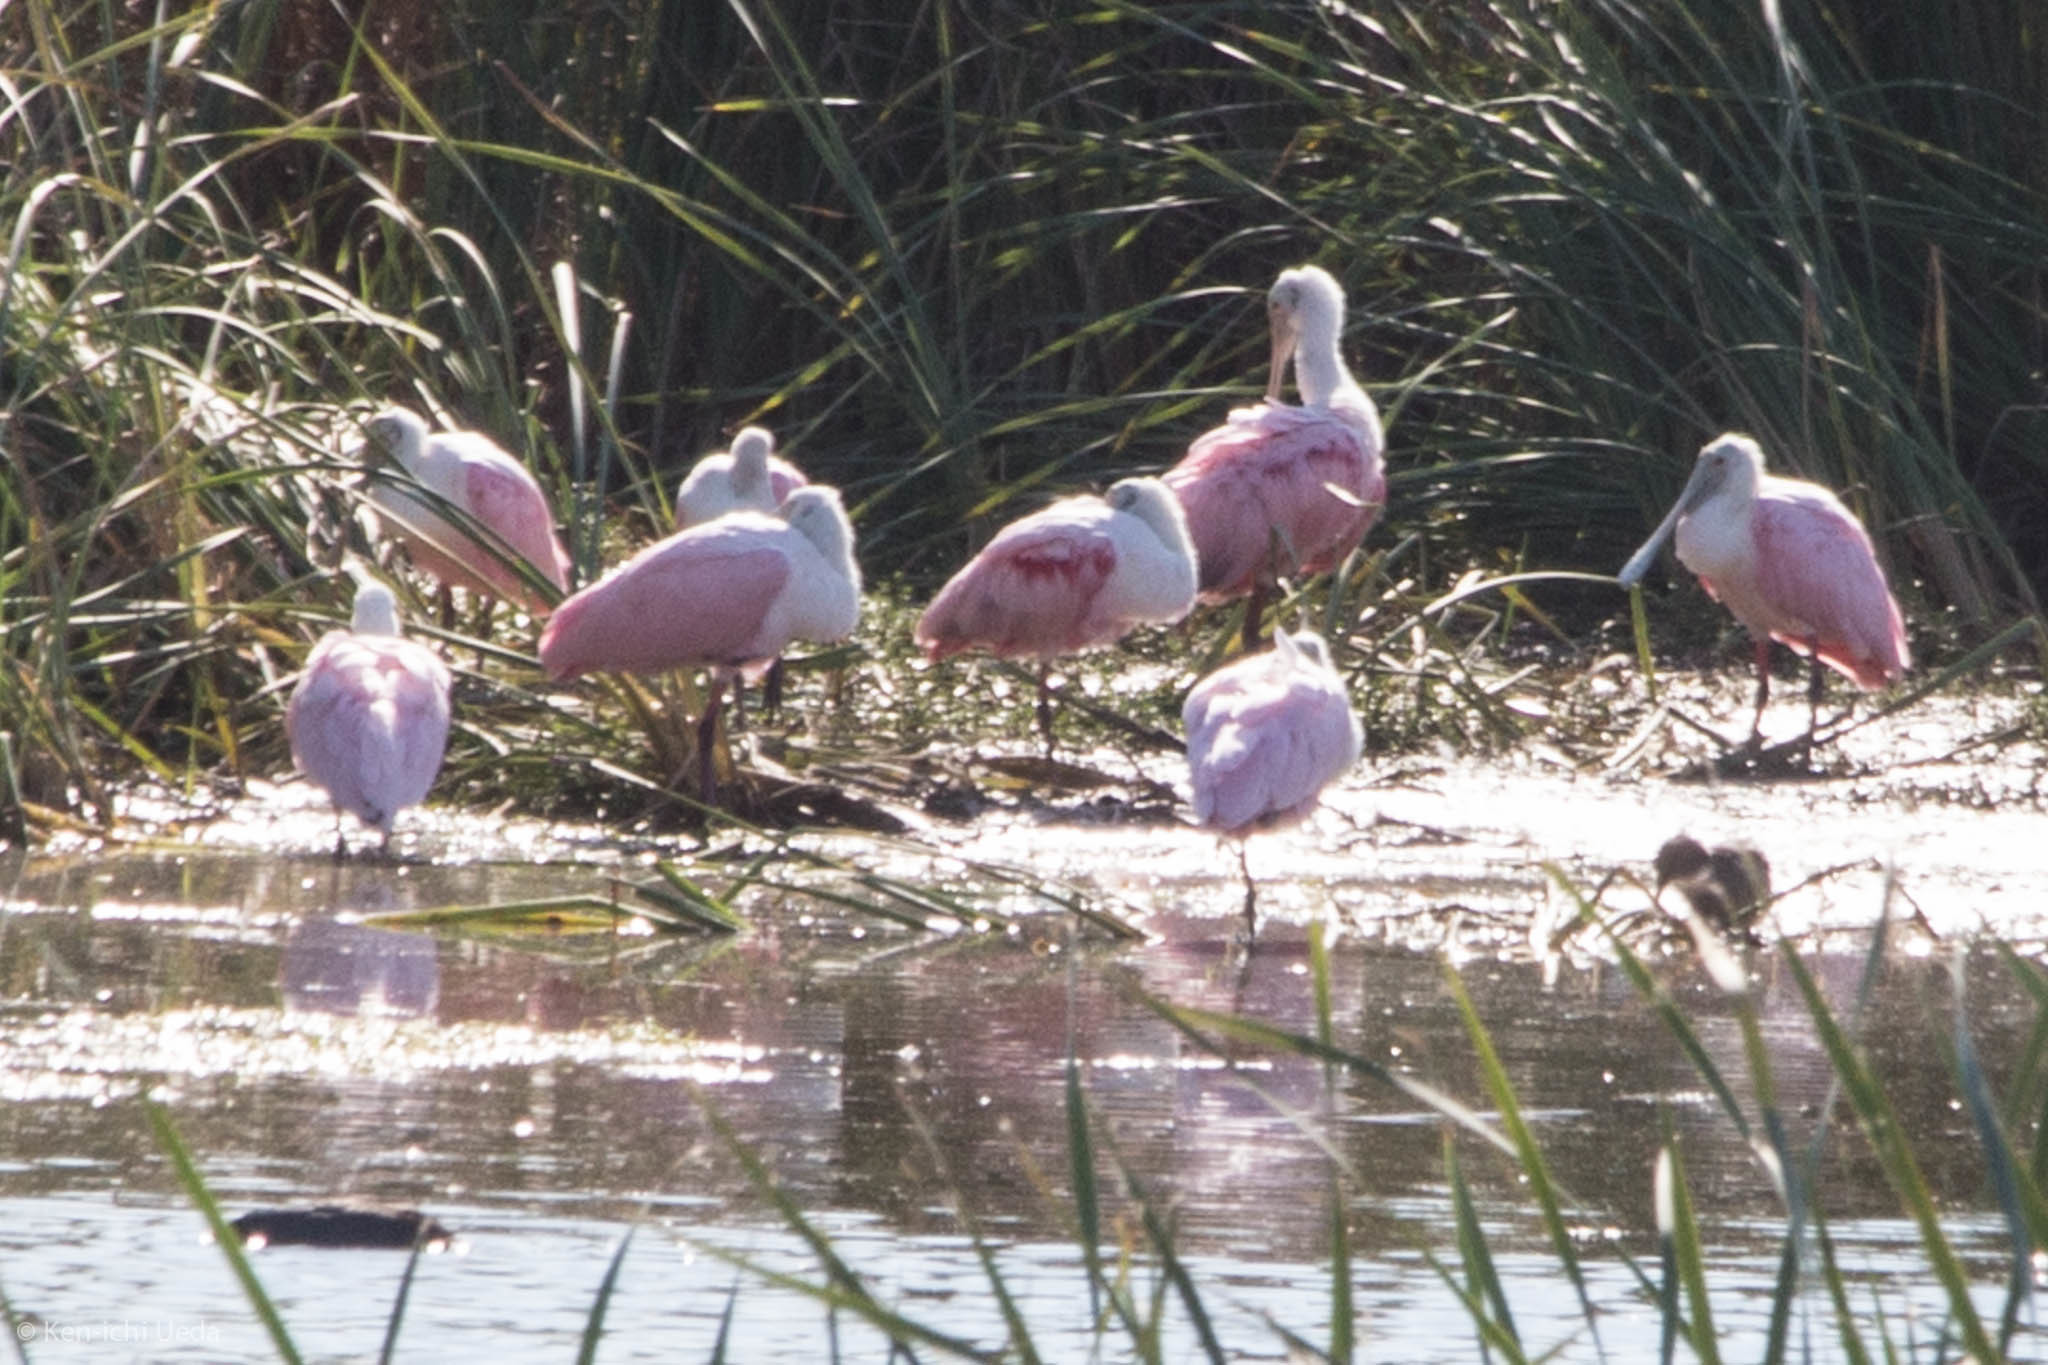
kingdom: Animalia
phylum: Chordata
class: Aves
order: Pelecaniformes
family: Threskiornithidae
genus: Platalea
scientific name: Platalea ajaja
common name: Roseate spoonbill
